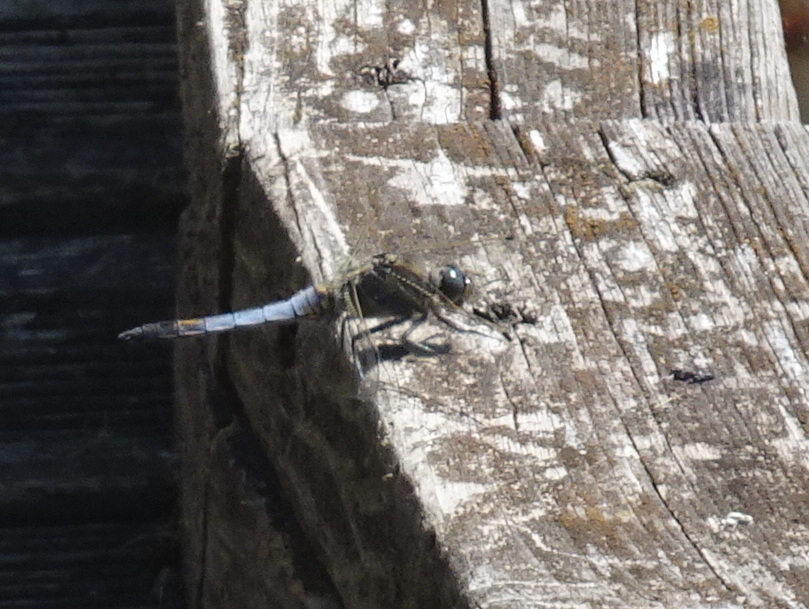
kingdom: Animalia
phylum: Arthropoda
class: Insecta
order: Odonata
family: Libellulidae
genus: Orthetrum
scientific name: Orthetrum cancellatum
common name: Black-tailed skimmer
